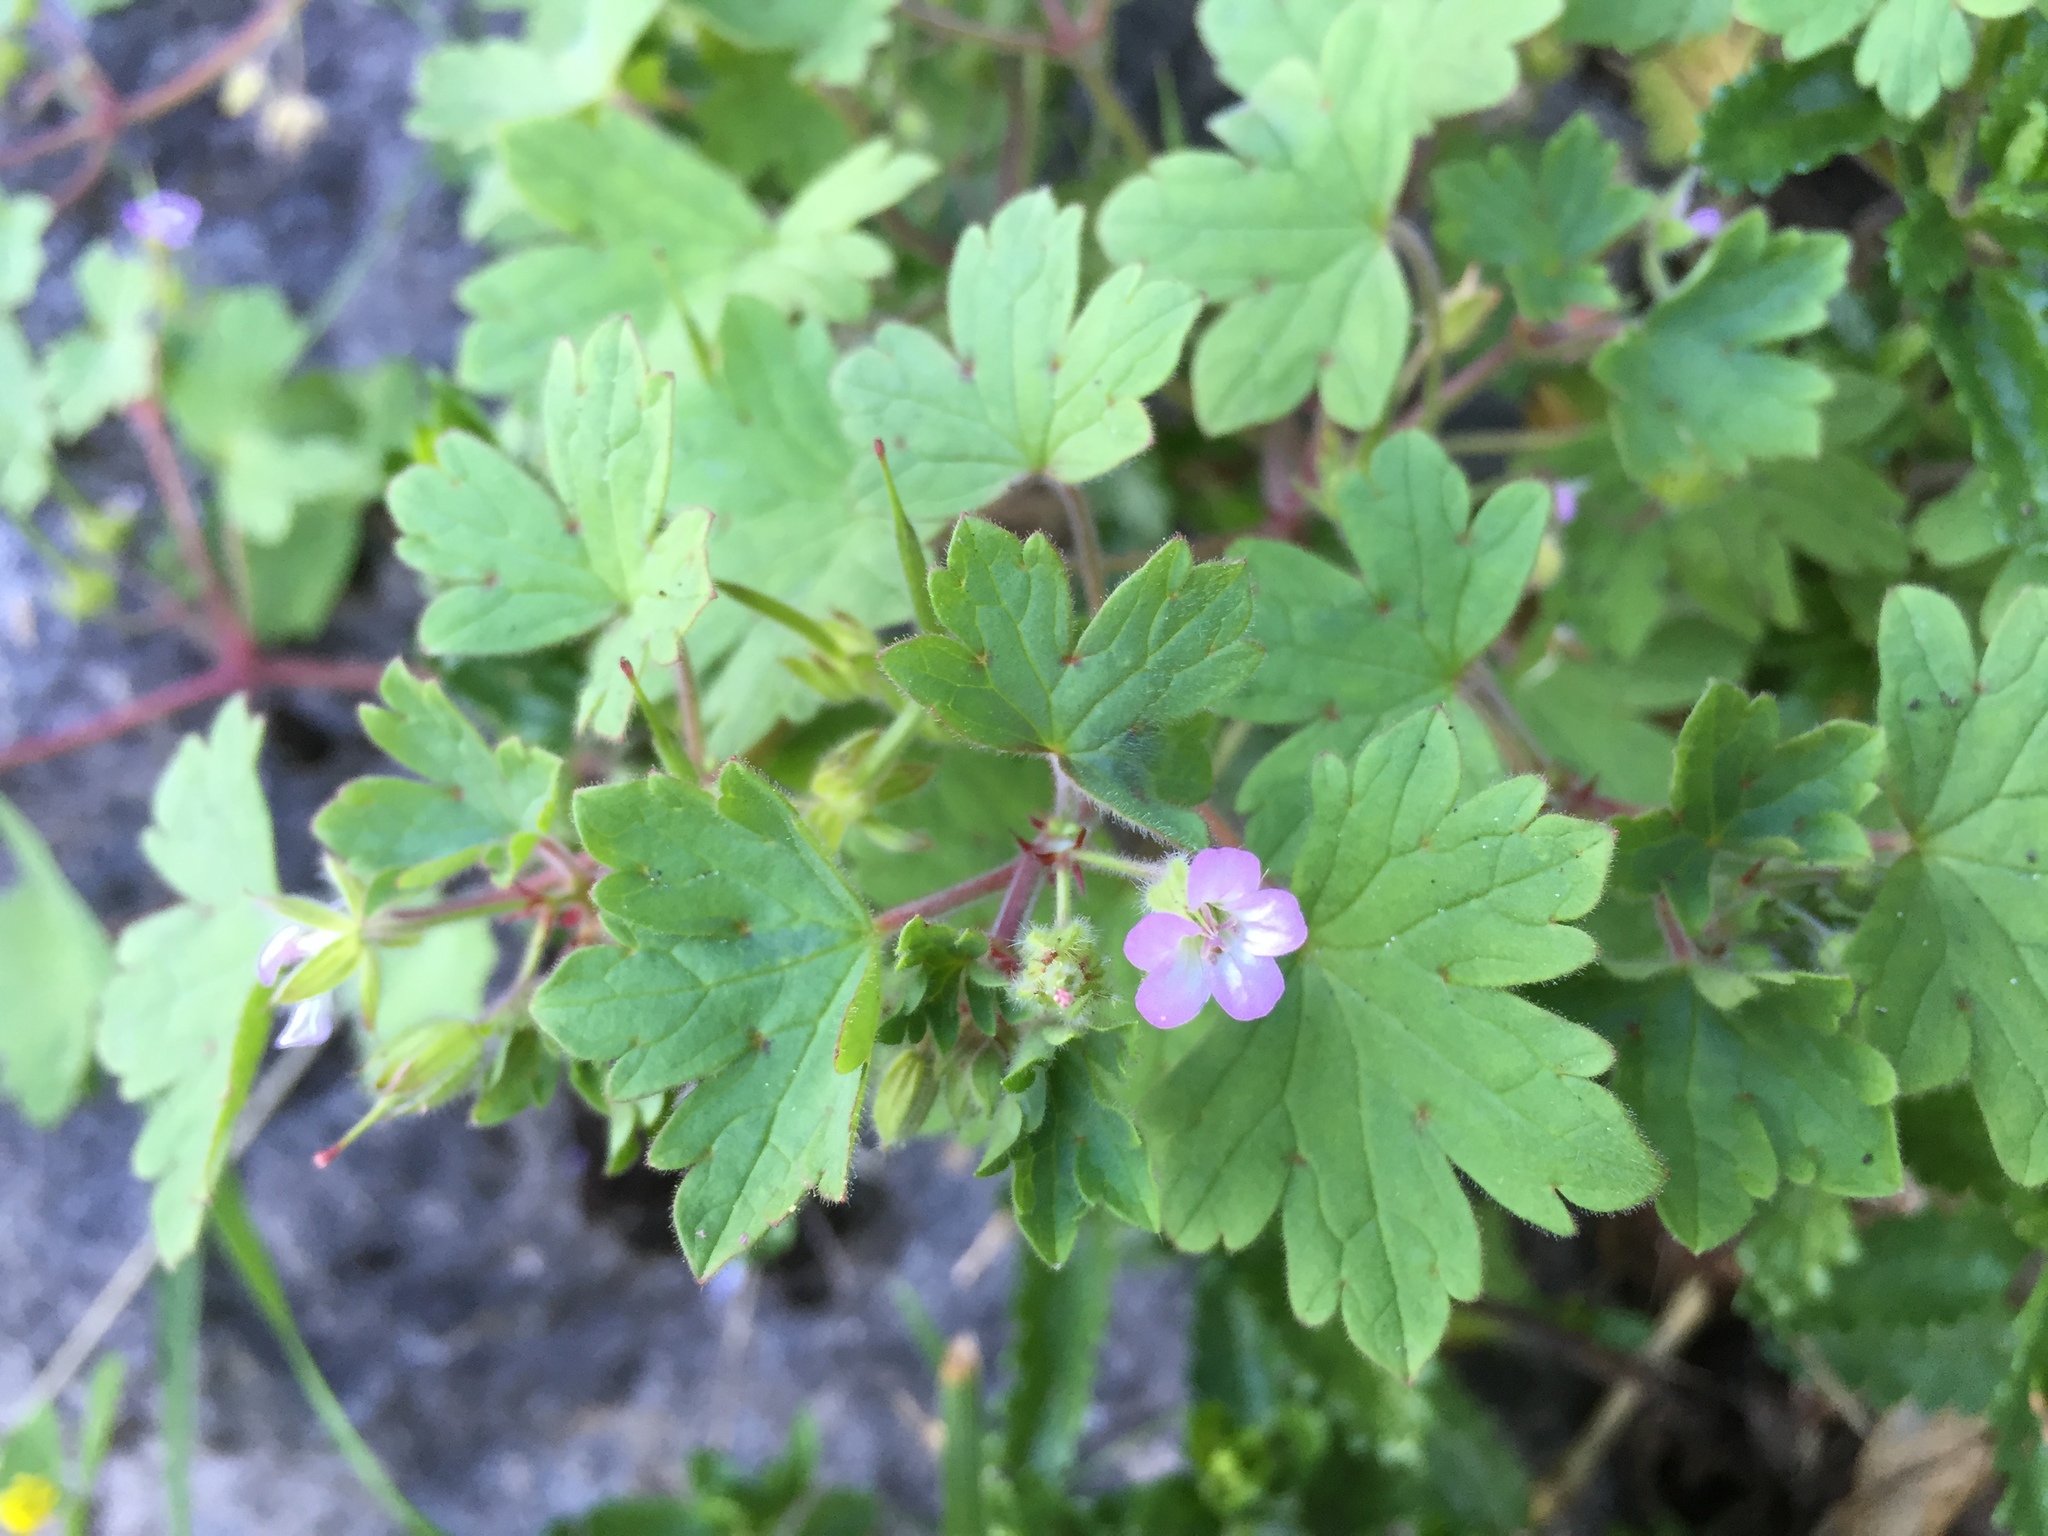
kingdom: Plantae
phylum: Tracheophyta
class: Magnoliopsida
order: Geraniales
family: Geraniaceae
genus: Geranium
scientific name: Geranium rotundifolium
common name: Round-leaved crane's-bill
